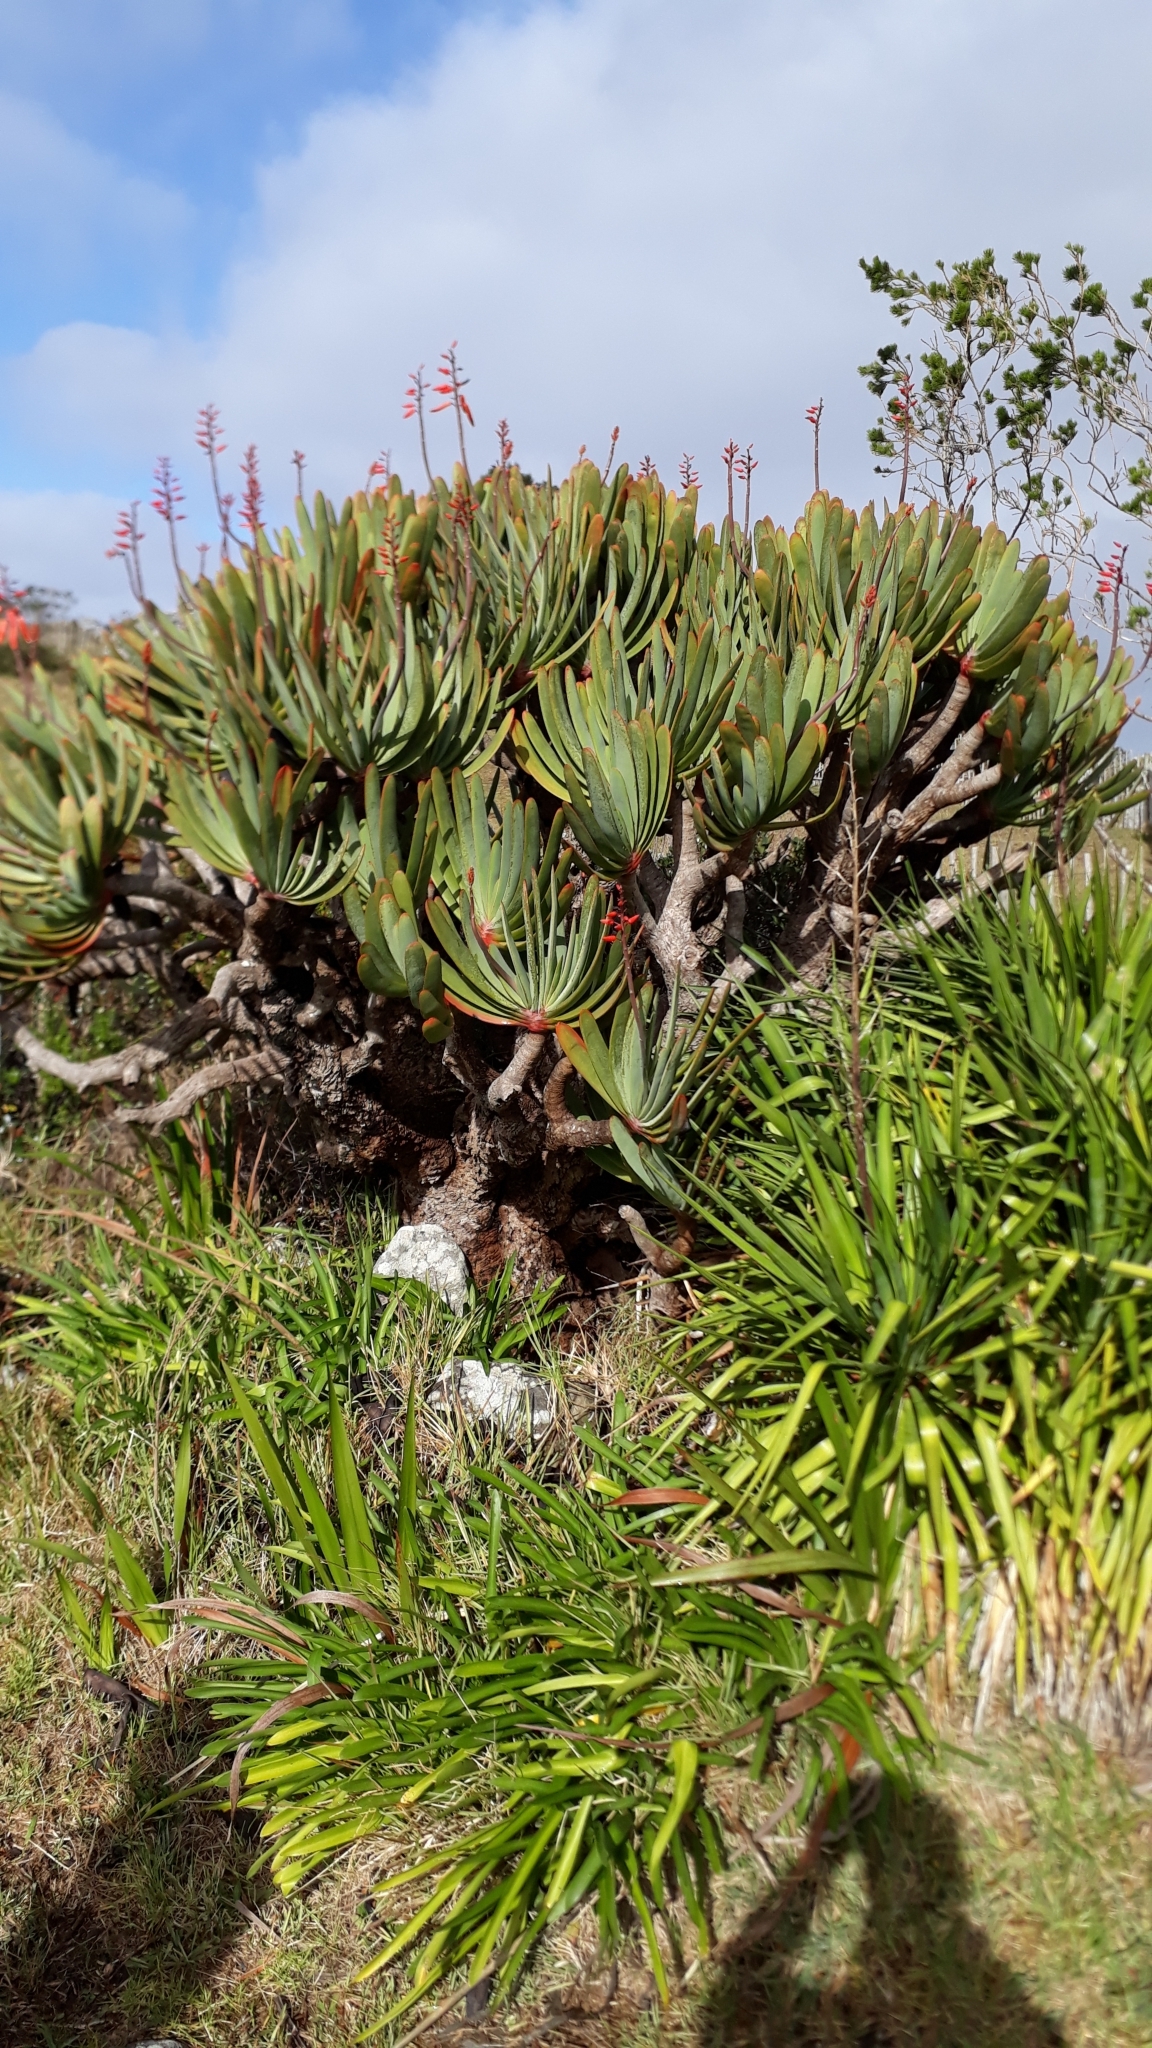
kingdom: Plantae
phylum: Tracheophyta
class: Liliopsida
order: Asparagales
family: Asphodelaceae
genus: Kumara
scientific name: Kumara plicatilis
